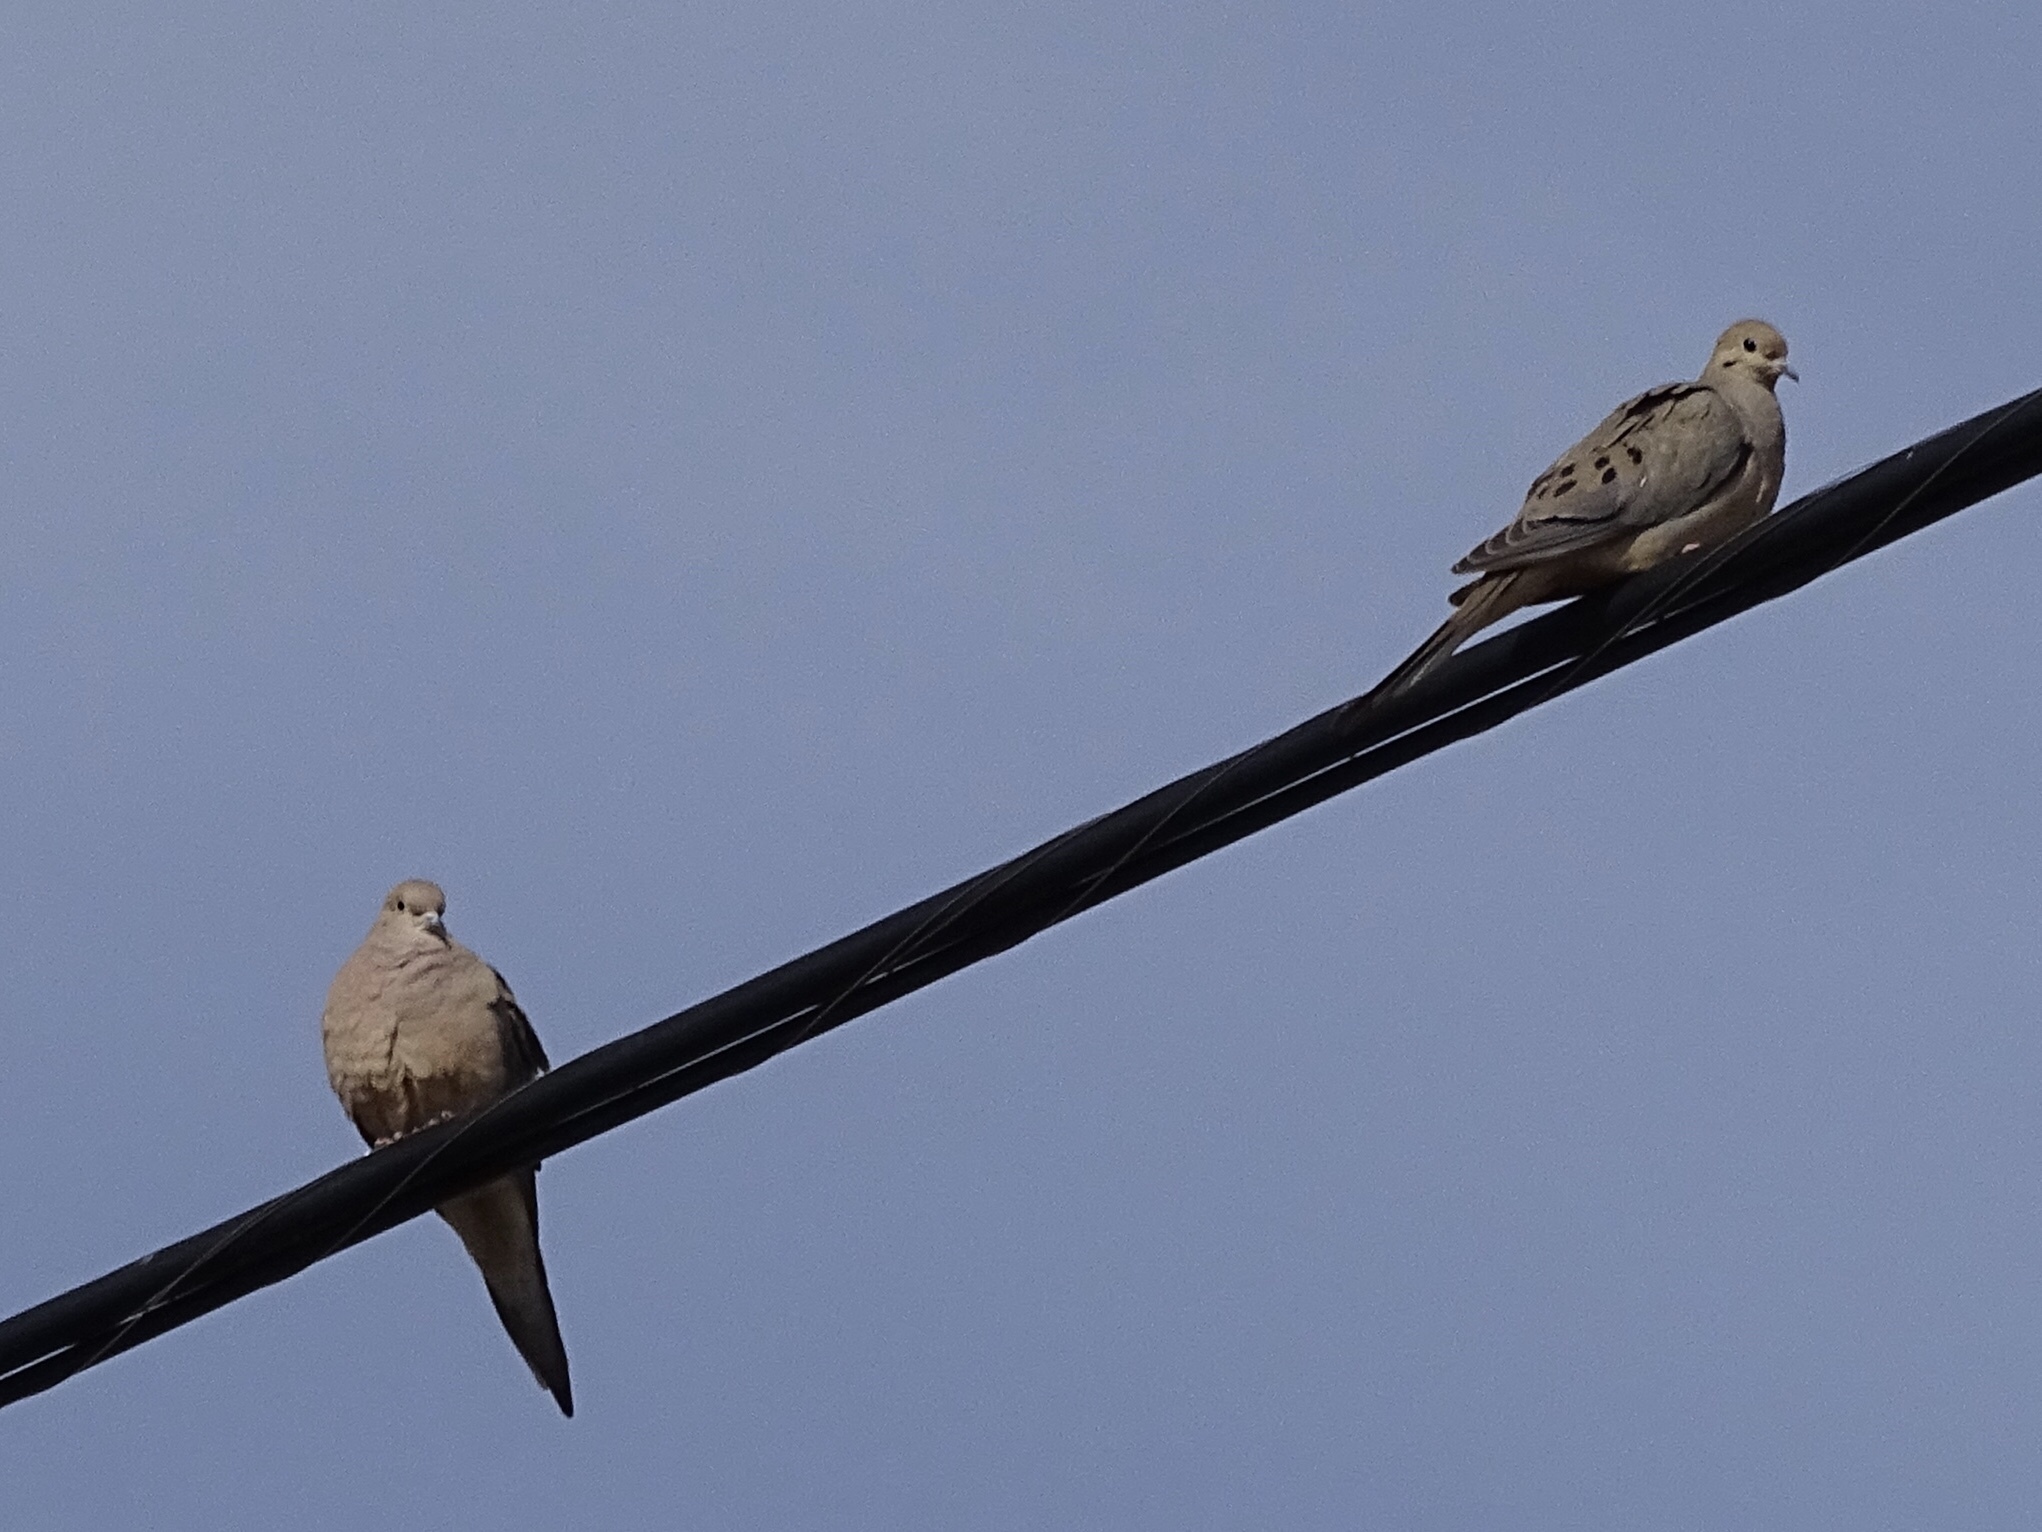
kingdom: Animalia
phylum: Chordata
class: Aves
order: Columbiformes
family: Columbidae
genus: Zenaida
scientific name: Zenaida macroura
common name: Mourning dove
